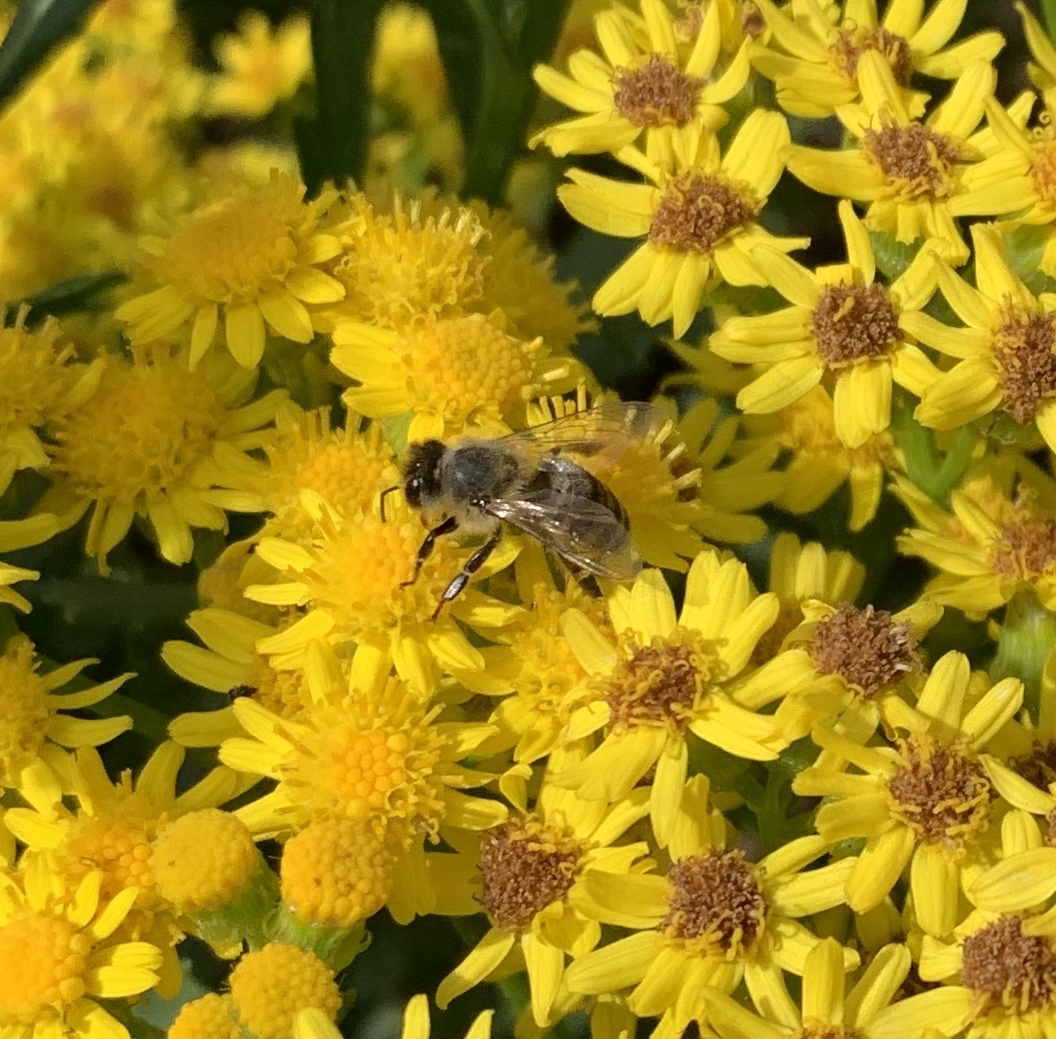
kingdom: Animalia
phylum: Arthropoda
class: Insecta
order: Hymenoptera
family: Apidae
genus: Apis
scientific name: Apis mellifera
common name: Honey bee
